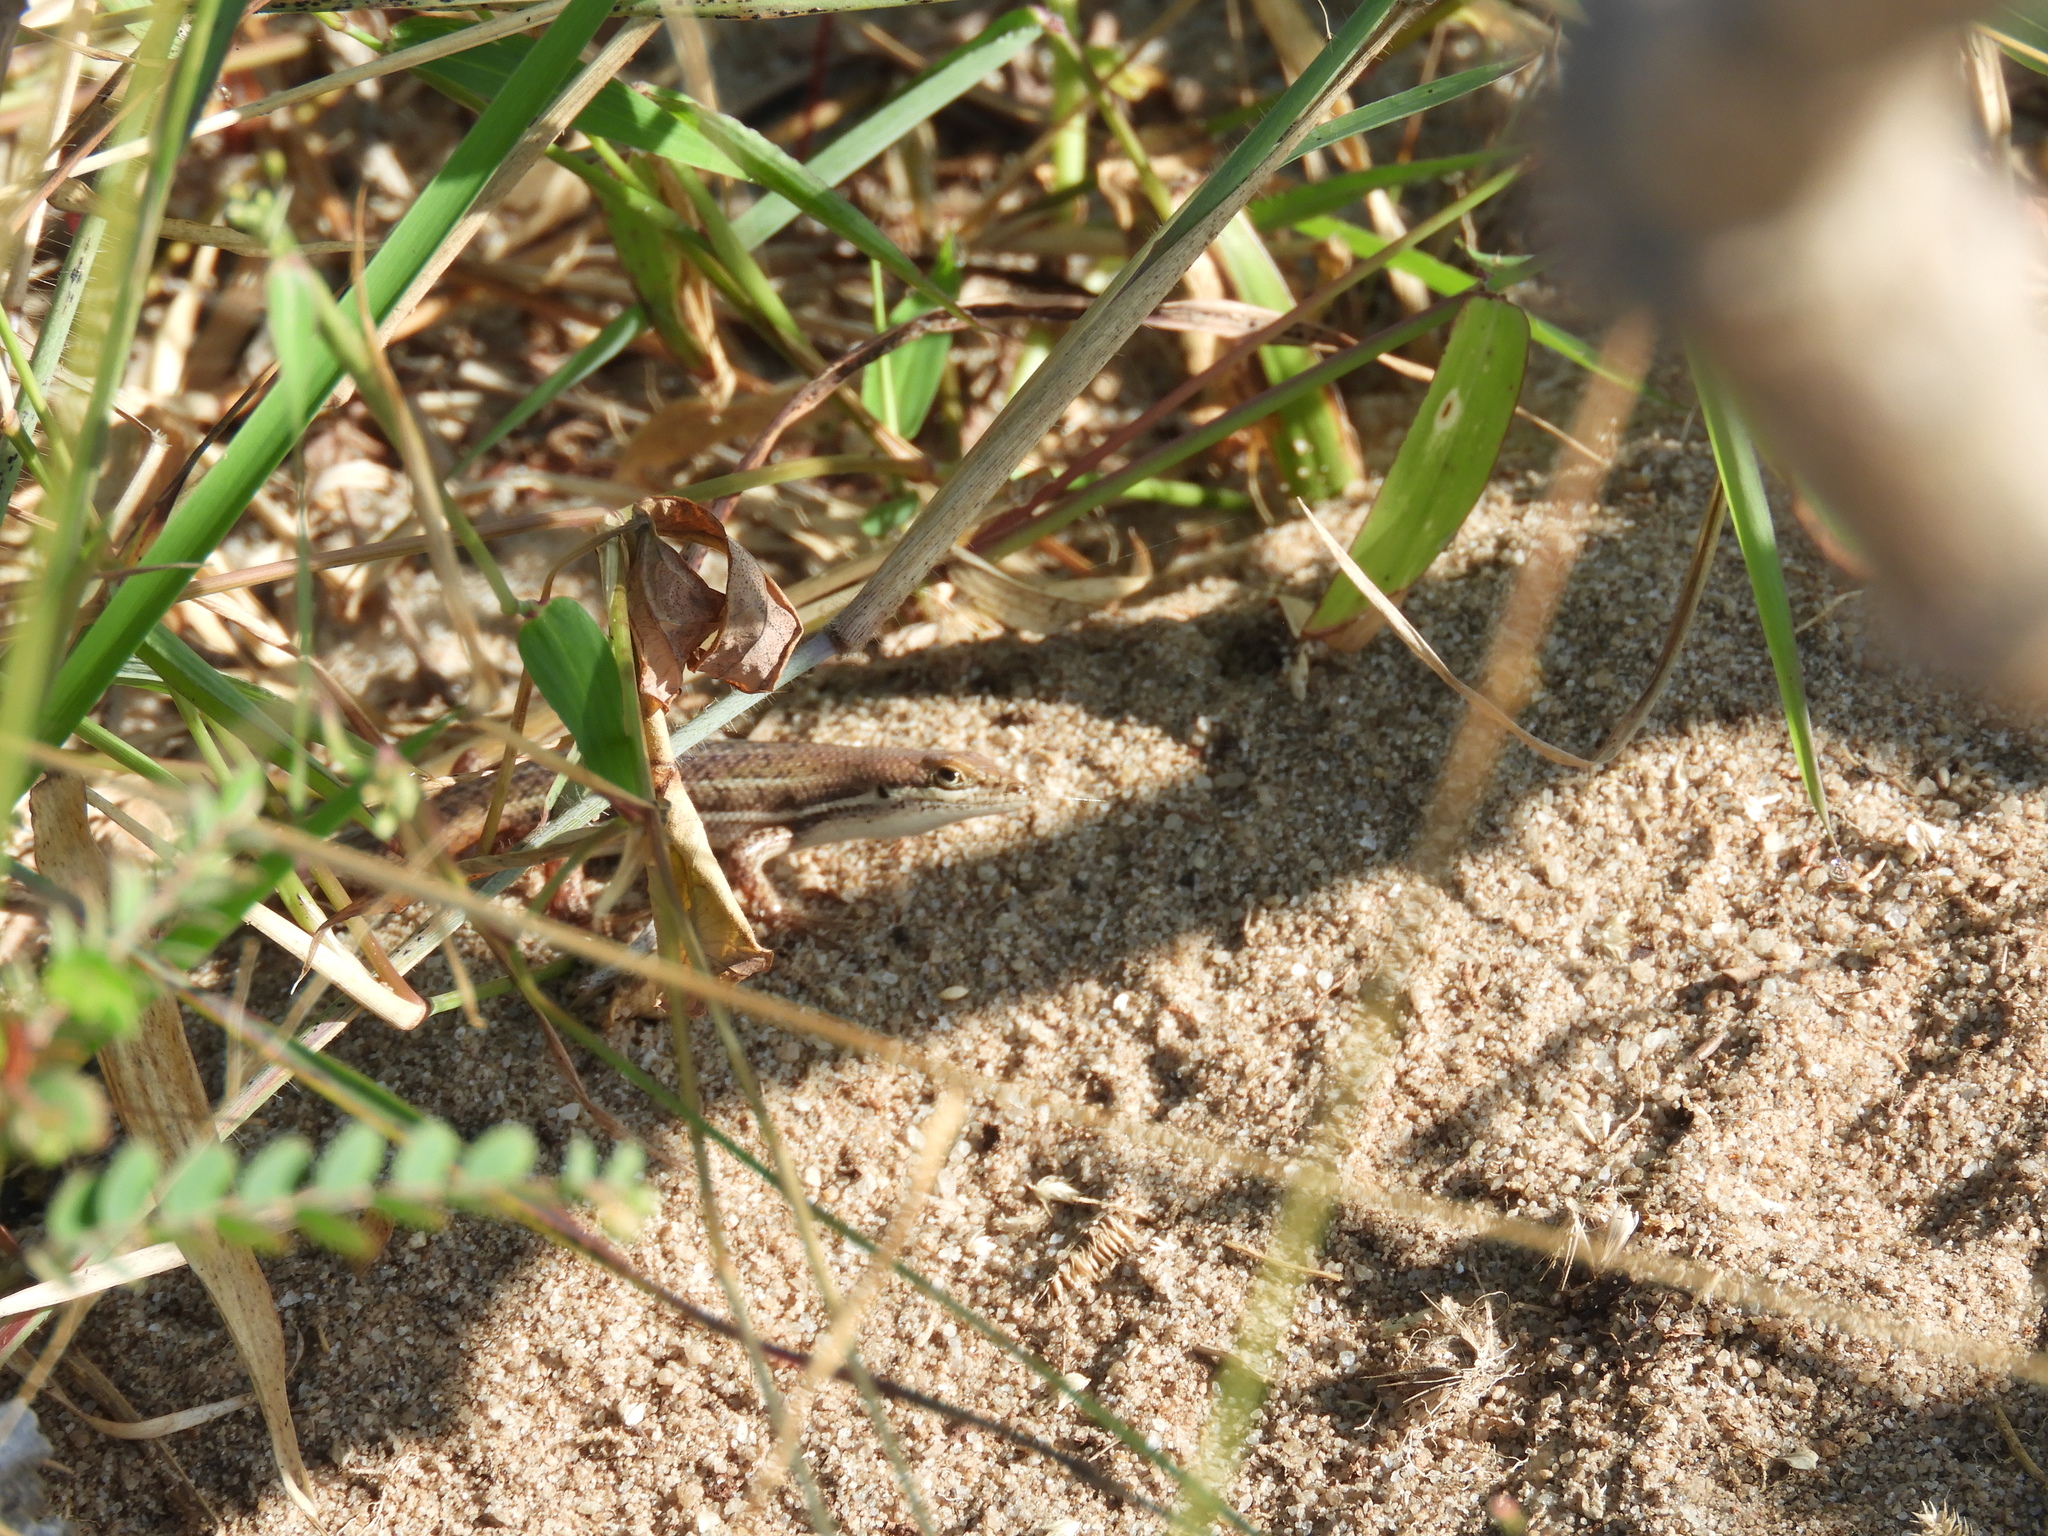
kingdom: Animalia
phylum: Chordata
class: Squamata
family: Scincidae
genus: Trachylepis
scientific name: Trachylepis varia
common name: Eastern variable skink
